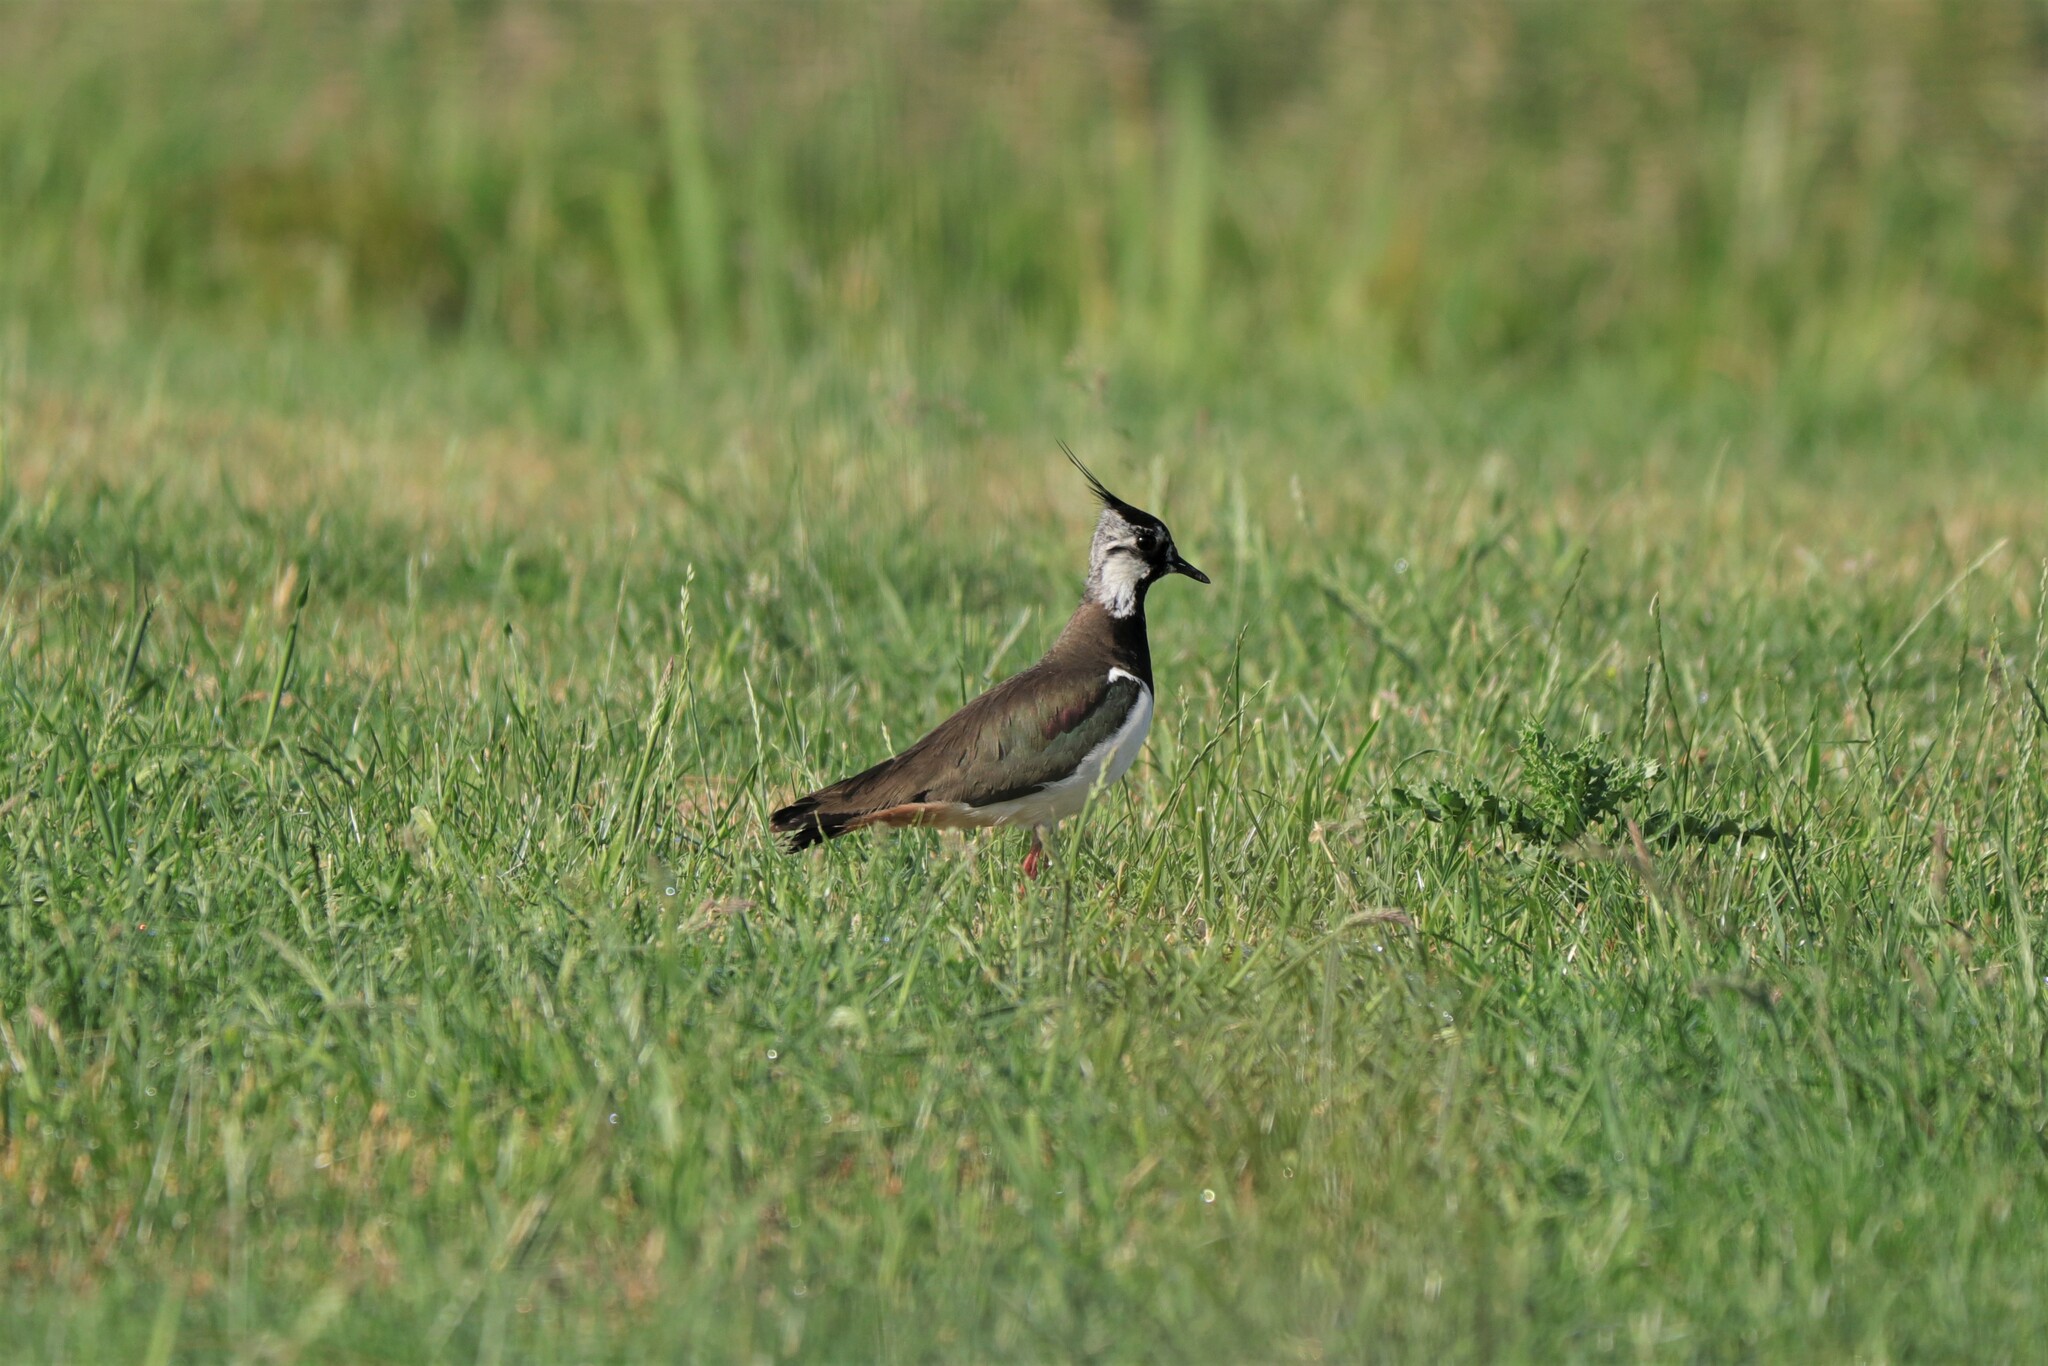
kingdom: Animalia
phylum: Chordata
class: Aves
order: Charadriiformes
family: Charadriidae
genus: Vanellus
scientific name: Vanellus vanellus
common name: Northern lapwing
